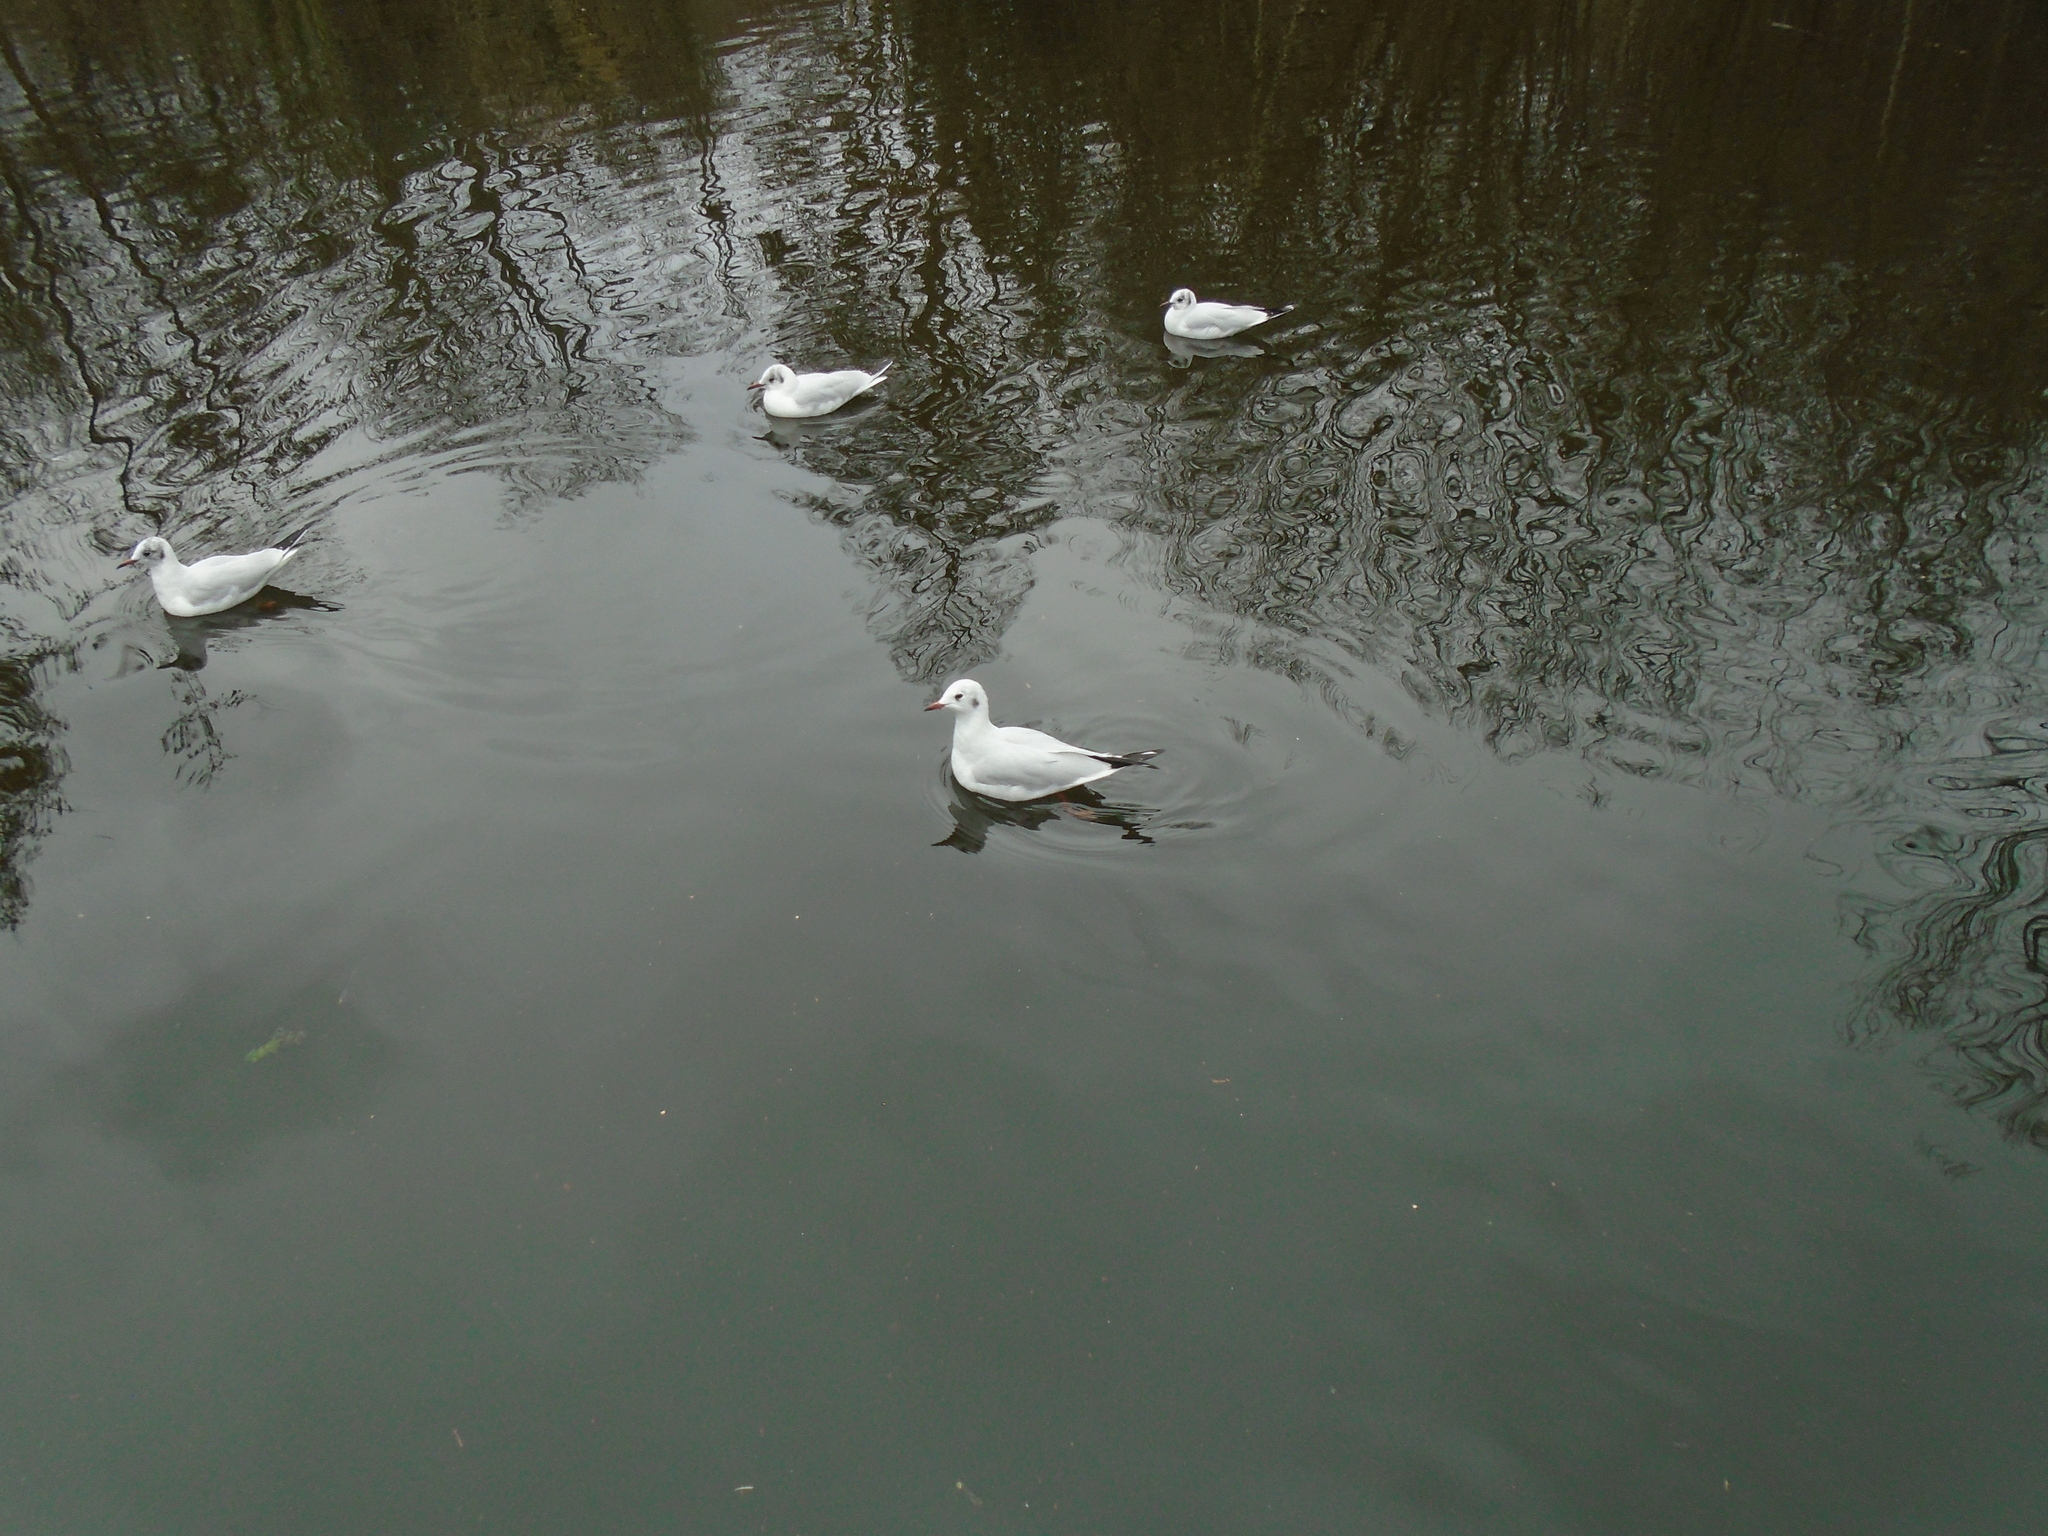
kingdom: Animalia
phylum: Chordata
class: Aves
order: Charadriiformes
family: Laridae
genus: Chroicocephalus
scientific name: Chroicocephalus ridibundus
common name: Black-headed gull
